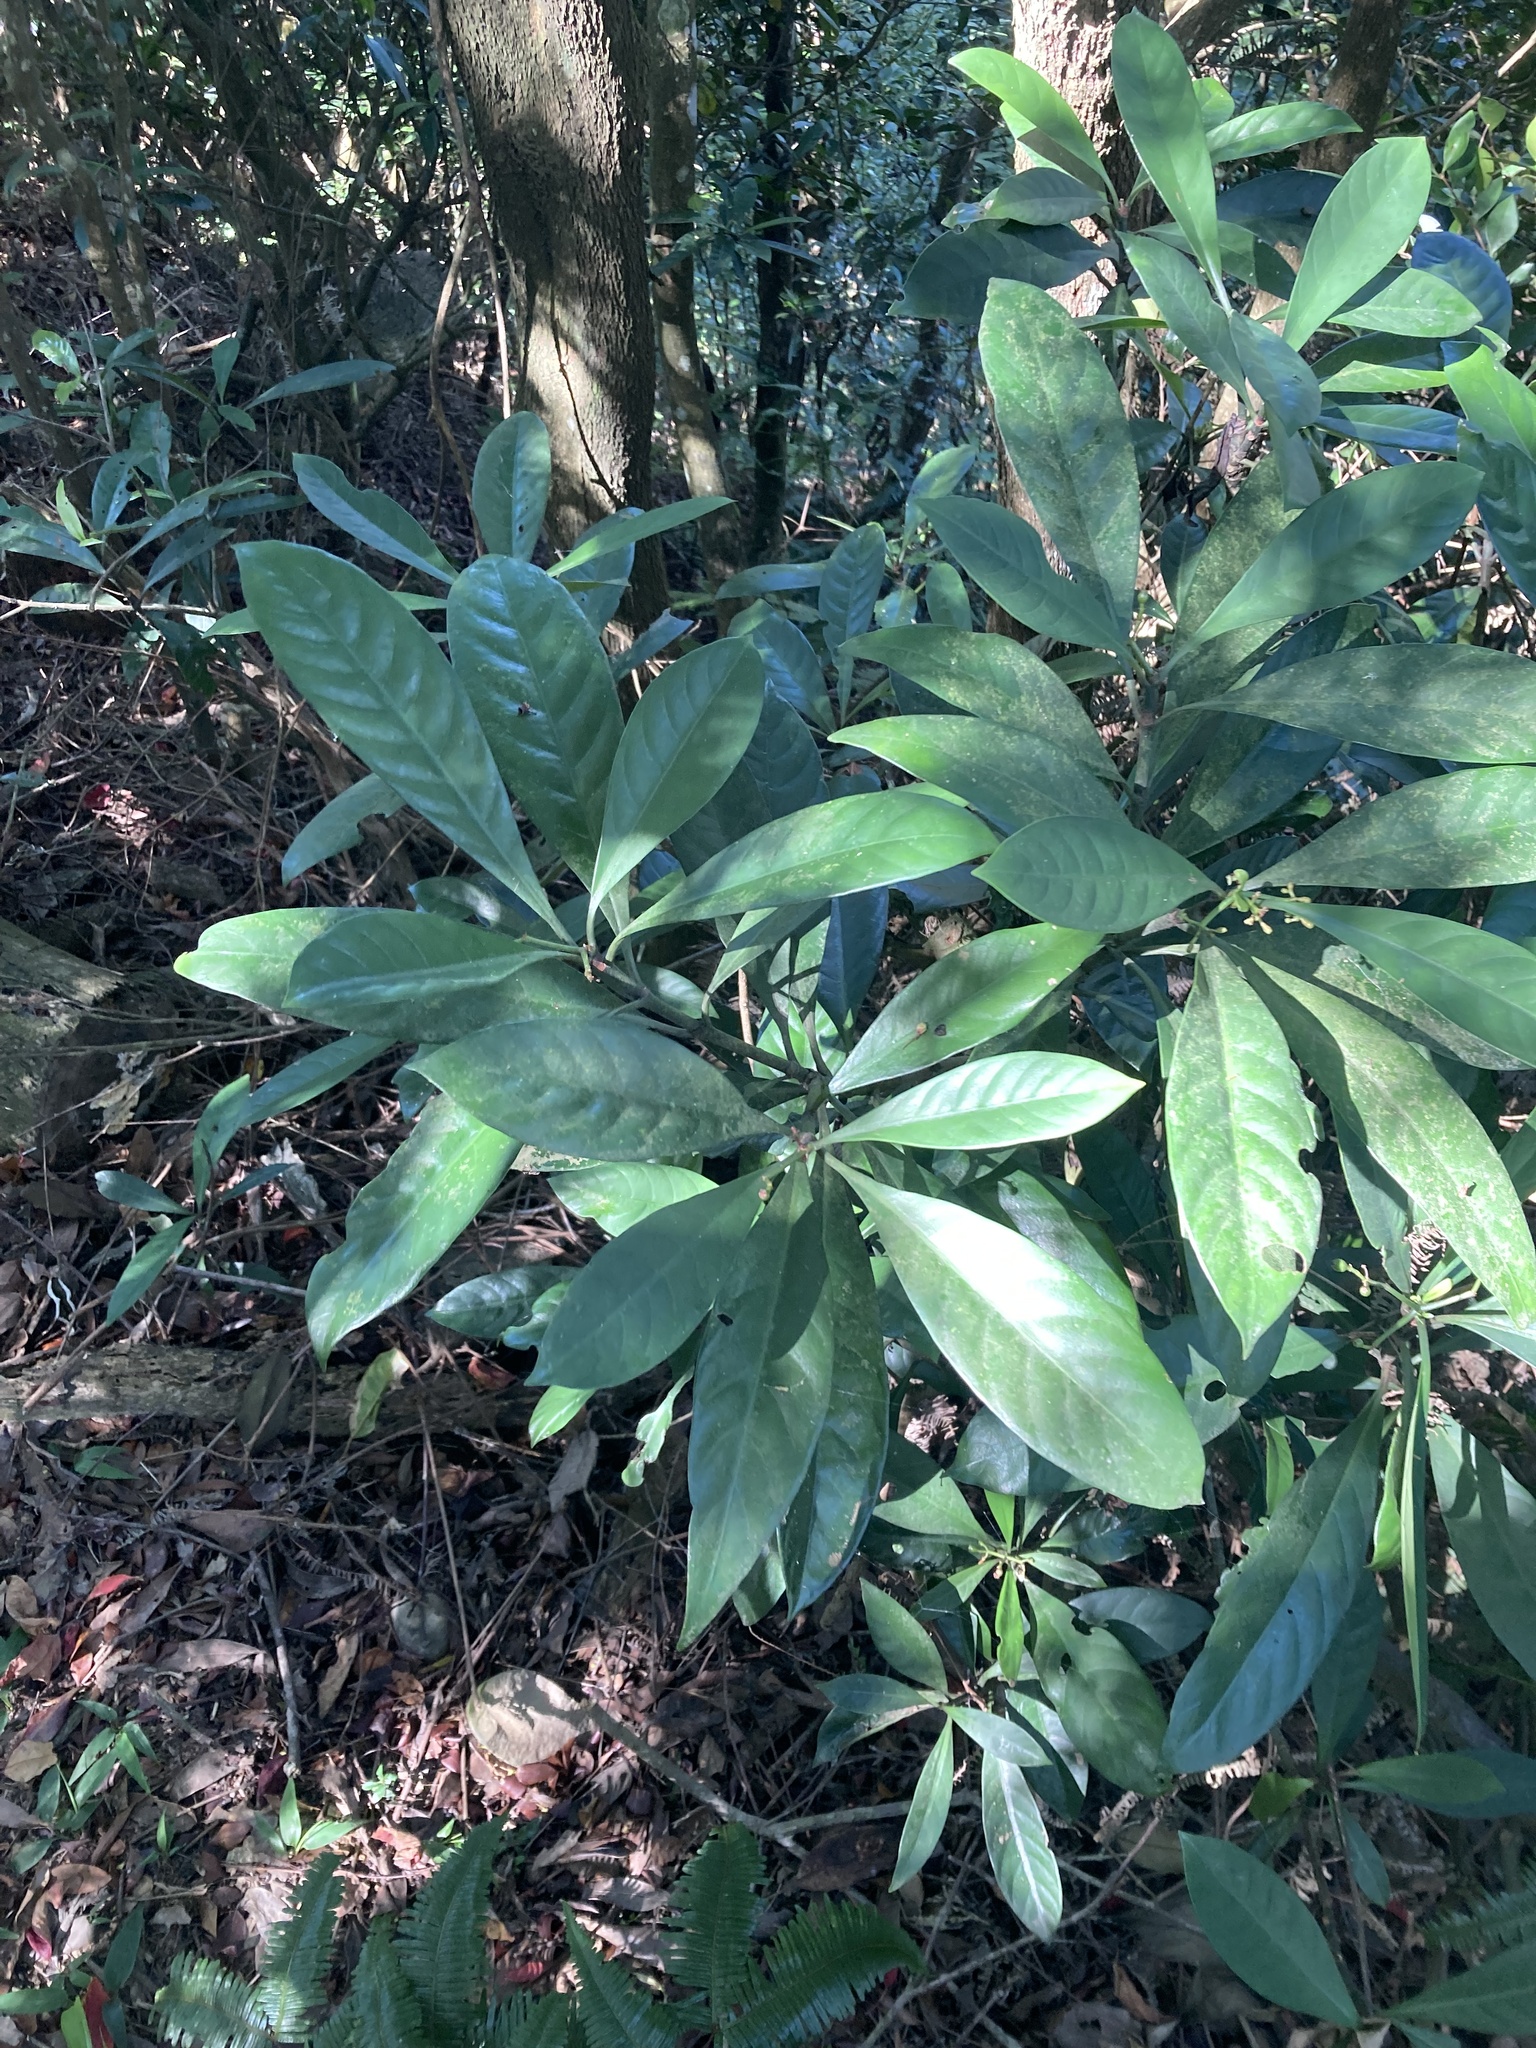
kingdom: Plantae
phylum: Tracheophyta
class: Magnoliopsida
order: Gentianales
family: Rubiaceae
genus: Psychotria
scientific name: Psychotria asiatica
